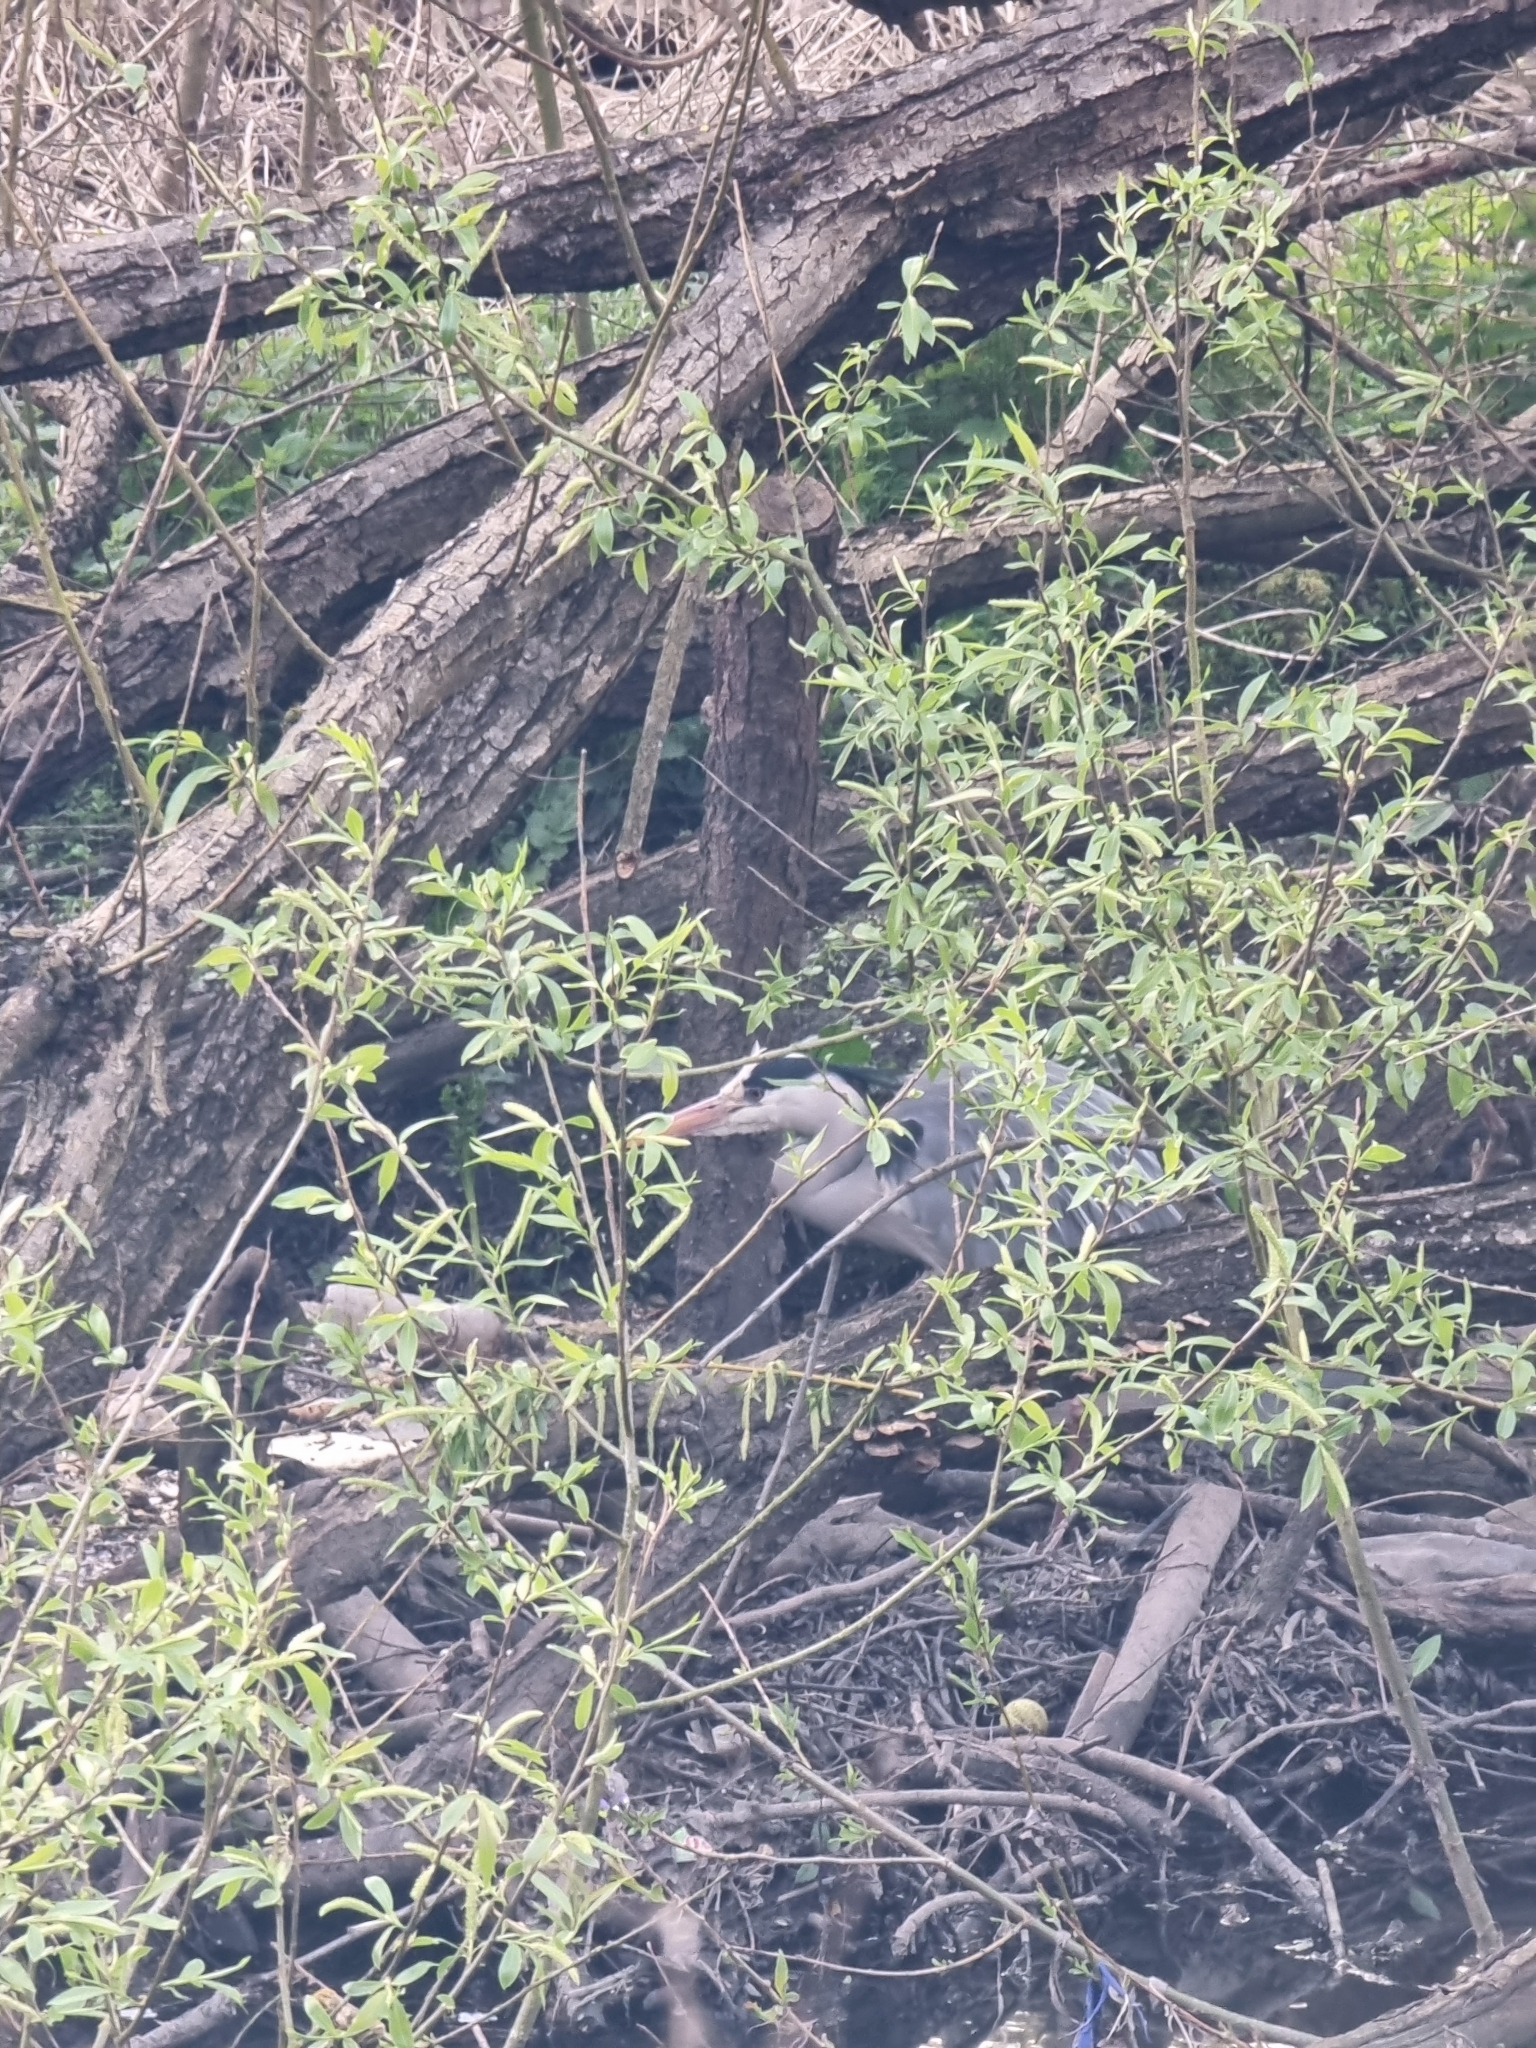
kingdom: Animalia
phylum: Chordata
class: Aves
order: Pelecaniformes
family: Ardeidae
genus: Ardea
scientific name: Ardea cinerea
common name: Grey heron
